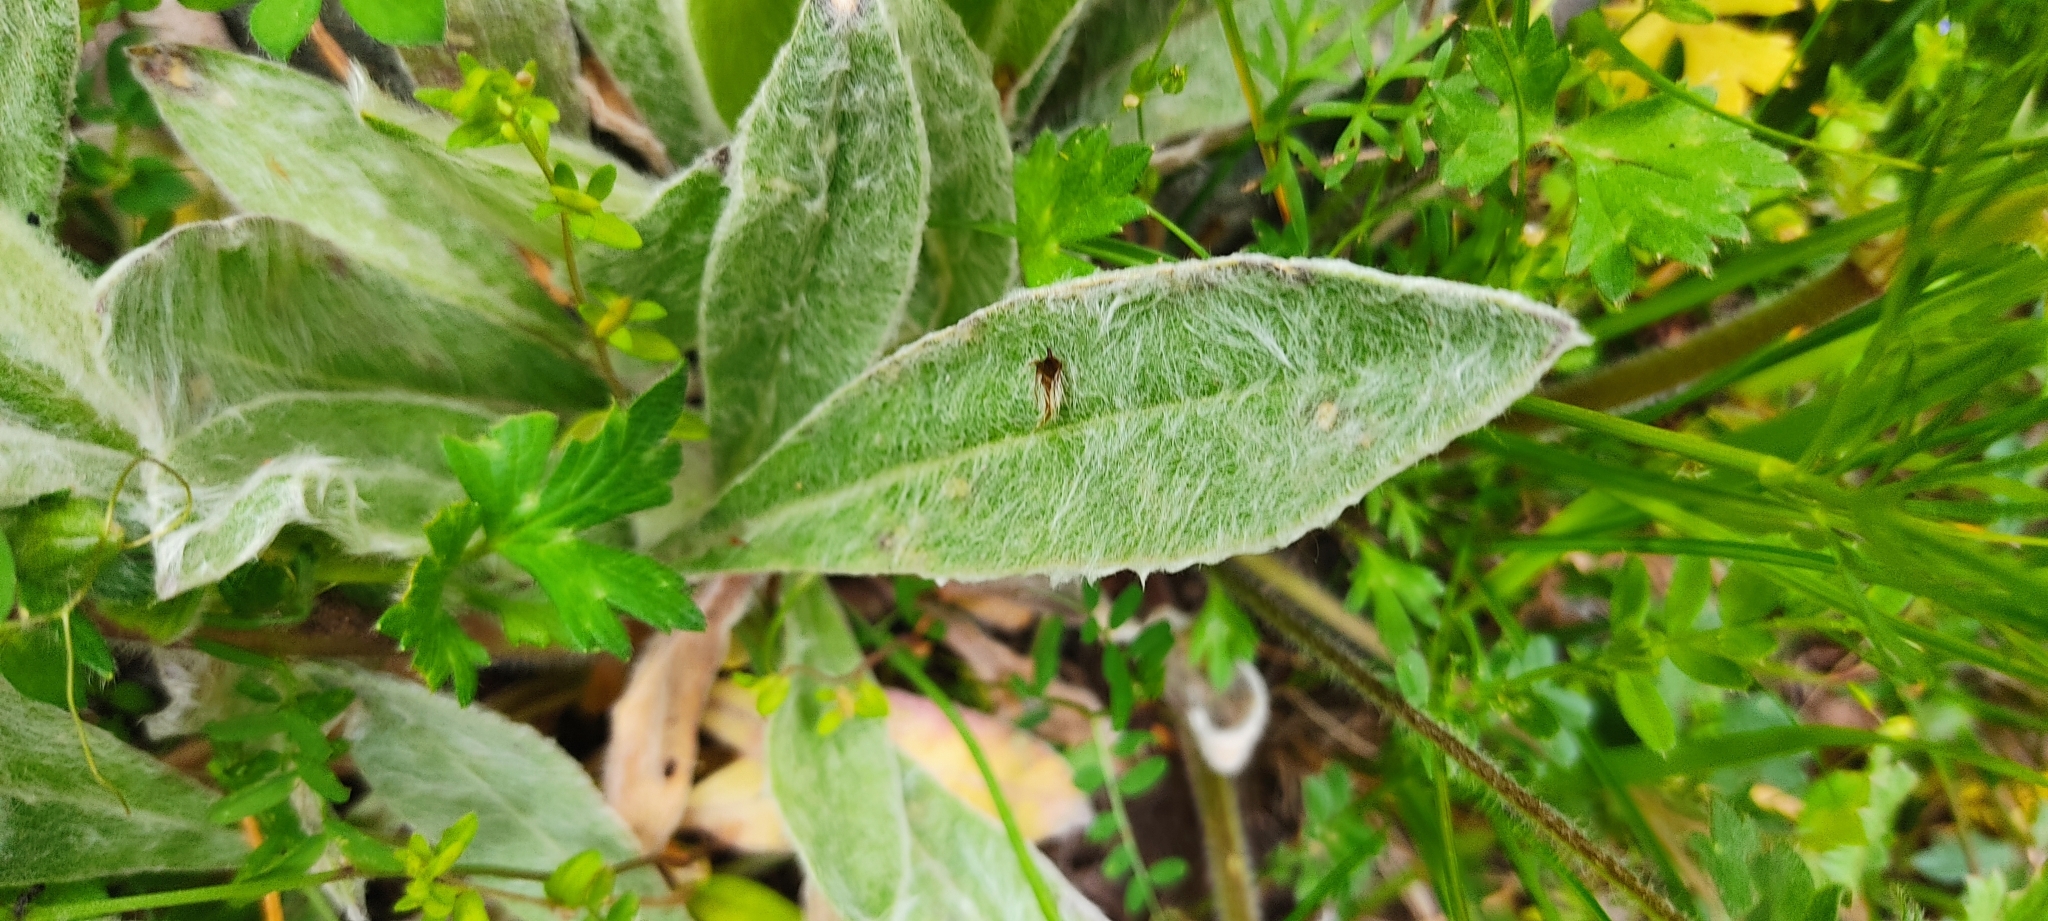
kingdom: Plantae
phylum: Tracheophyta
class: Magnoliopsida
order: Caryophyllales
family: Caryophyllaceae
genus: Silene
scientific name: Silene coronaria
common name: Rose campion
